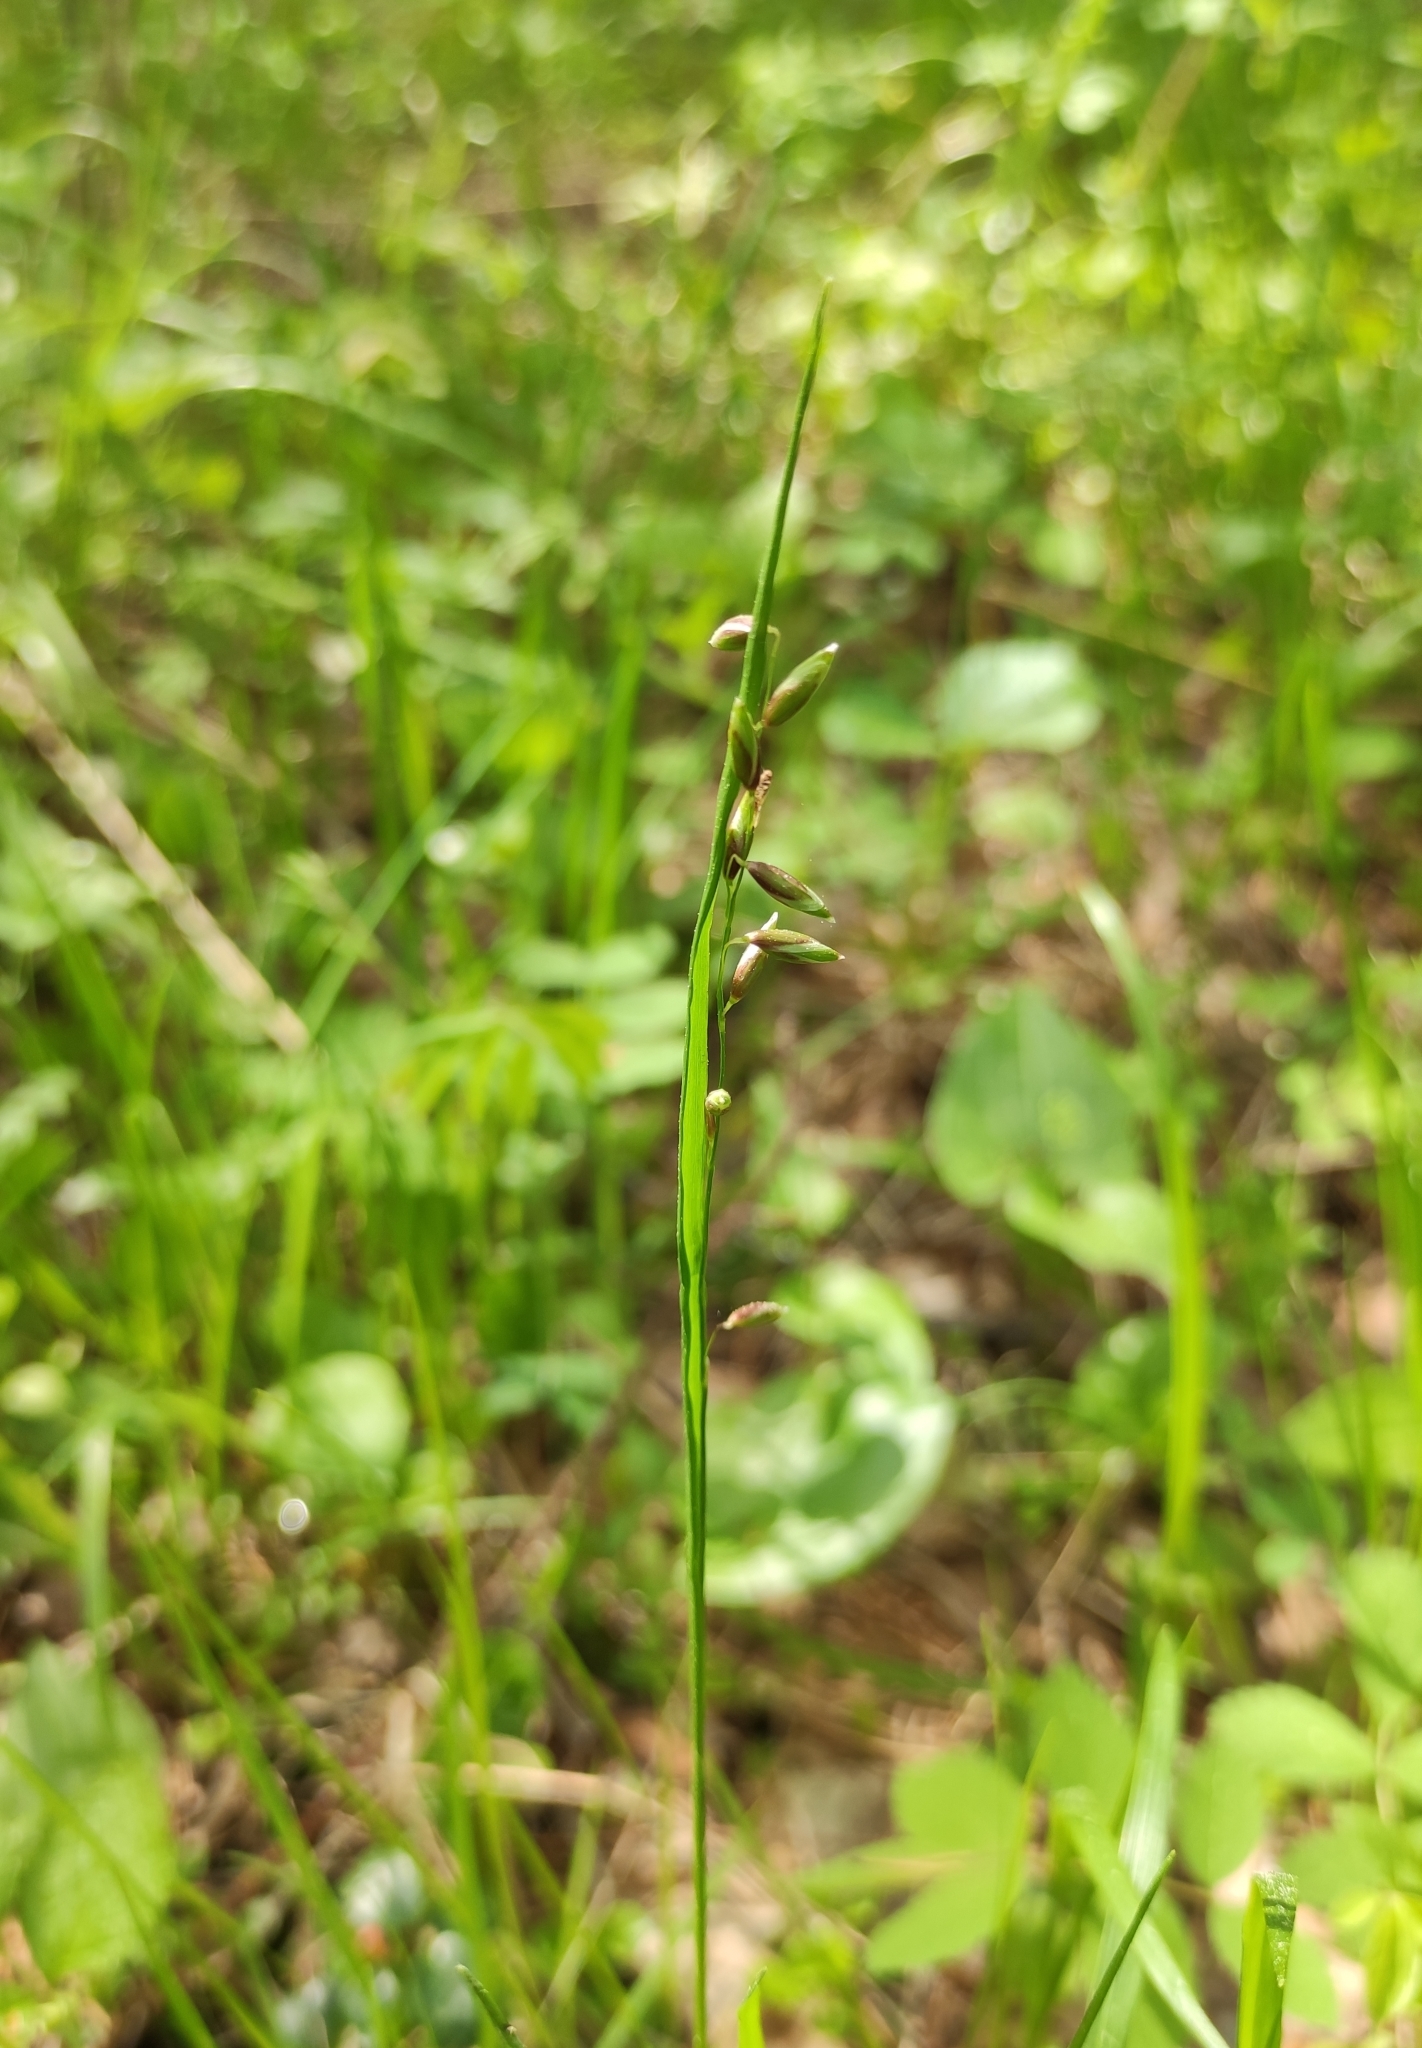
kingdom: Plantae
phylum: Tracheophyta
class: Liliopsida
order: Poales
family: Poaceae
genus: Melica
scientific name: Melica nutans
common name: Mountain melick
